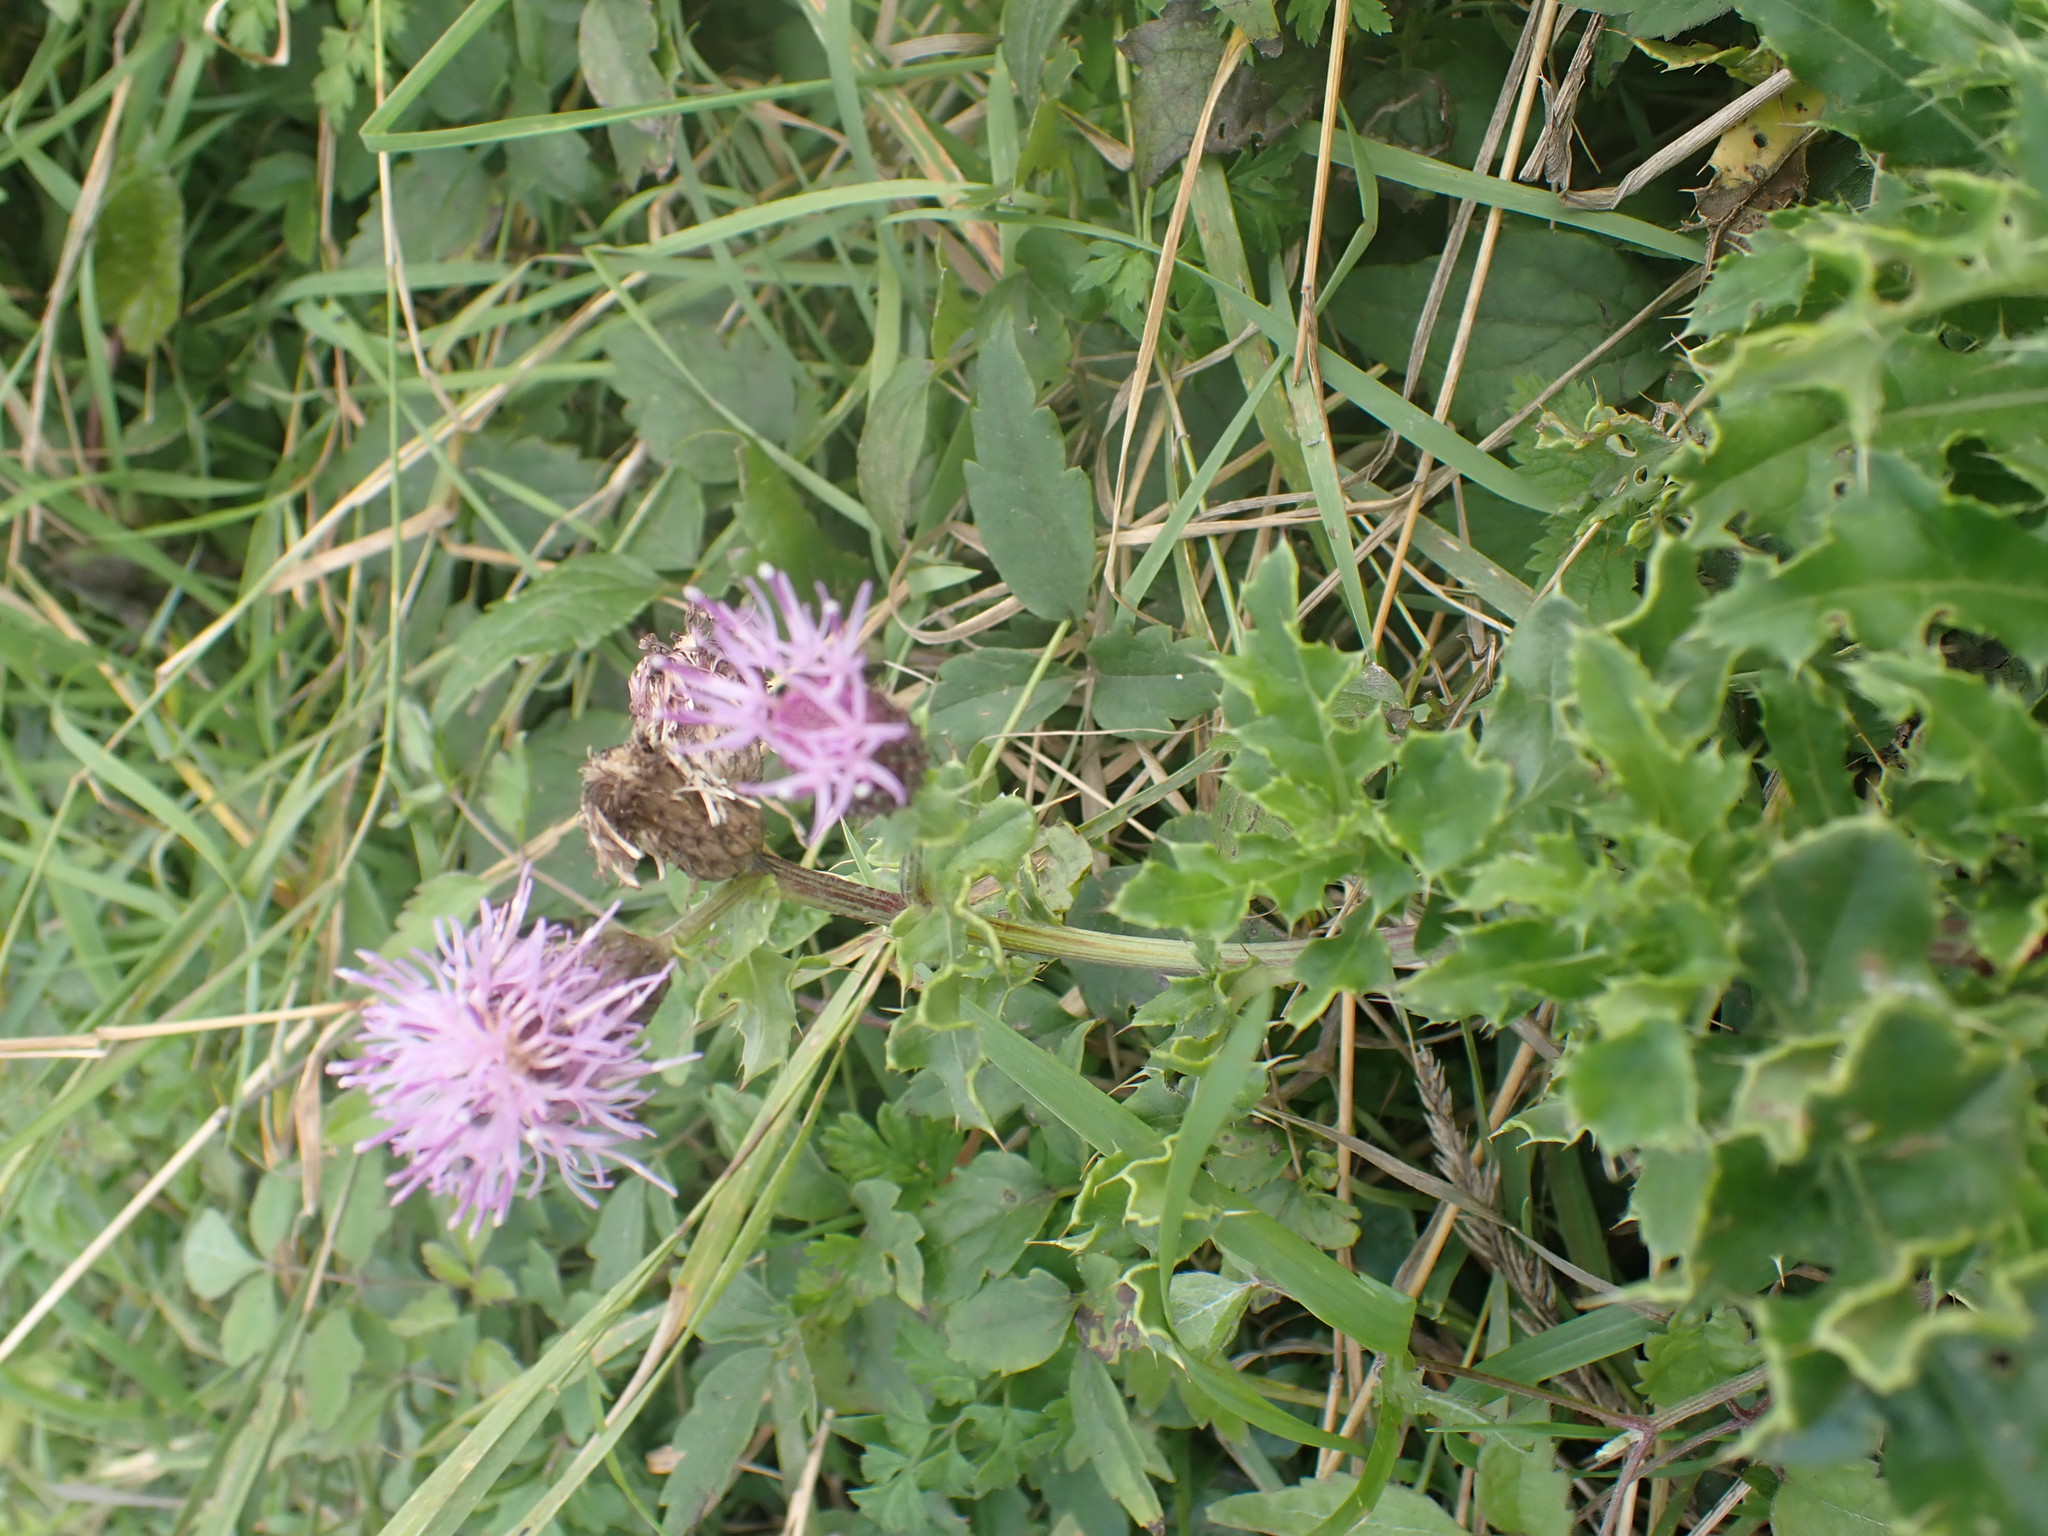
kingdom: Plantae
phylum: Tracheophyta
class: Magnoliopsida
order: Asterales
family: Asteraceae
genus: Cirsium
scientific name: Cirsium arvense
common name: Creeping thistle
